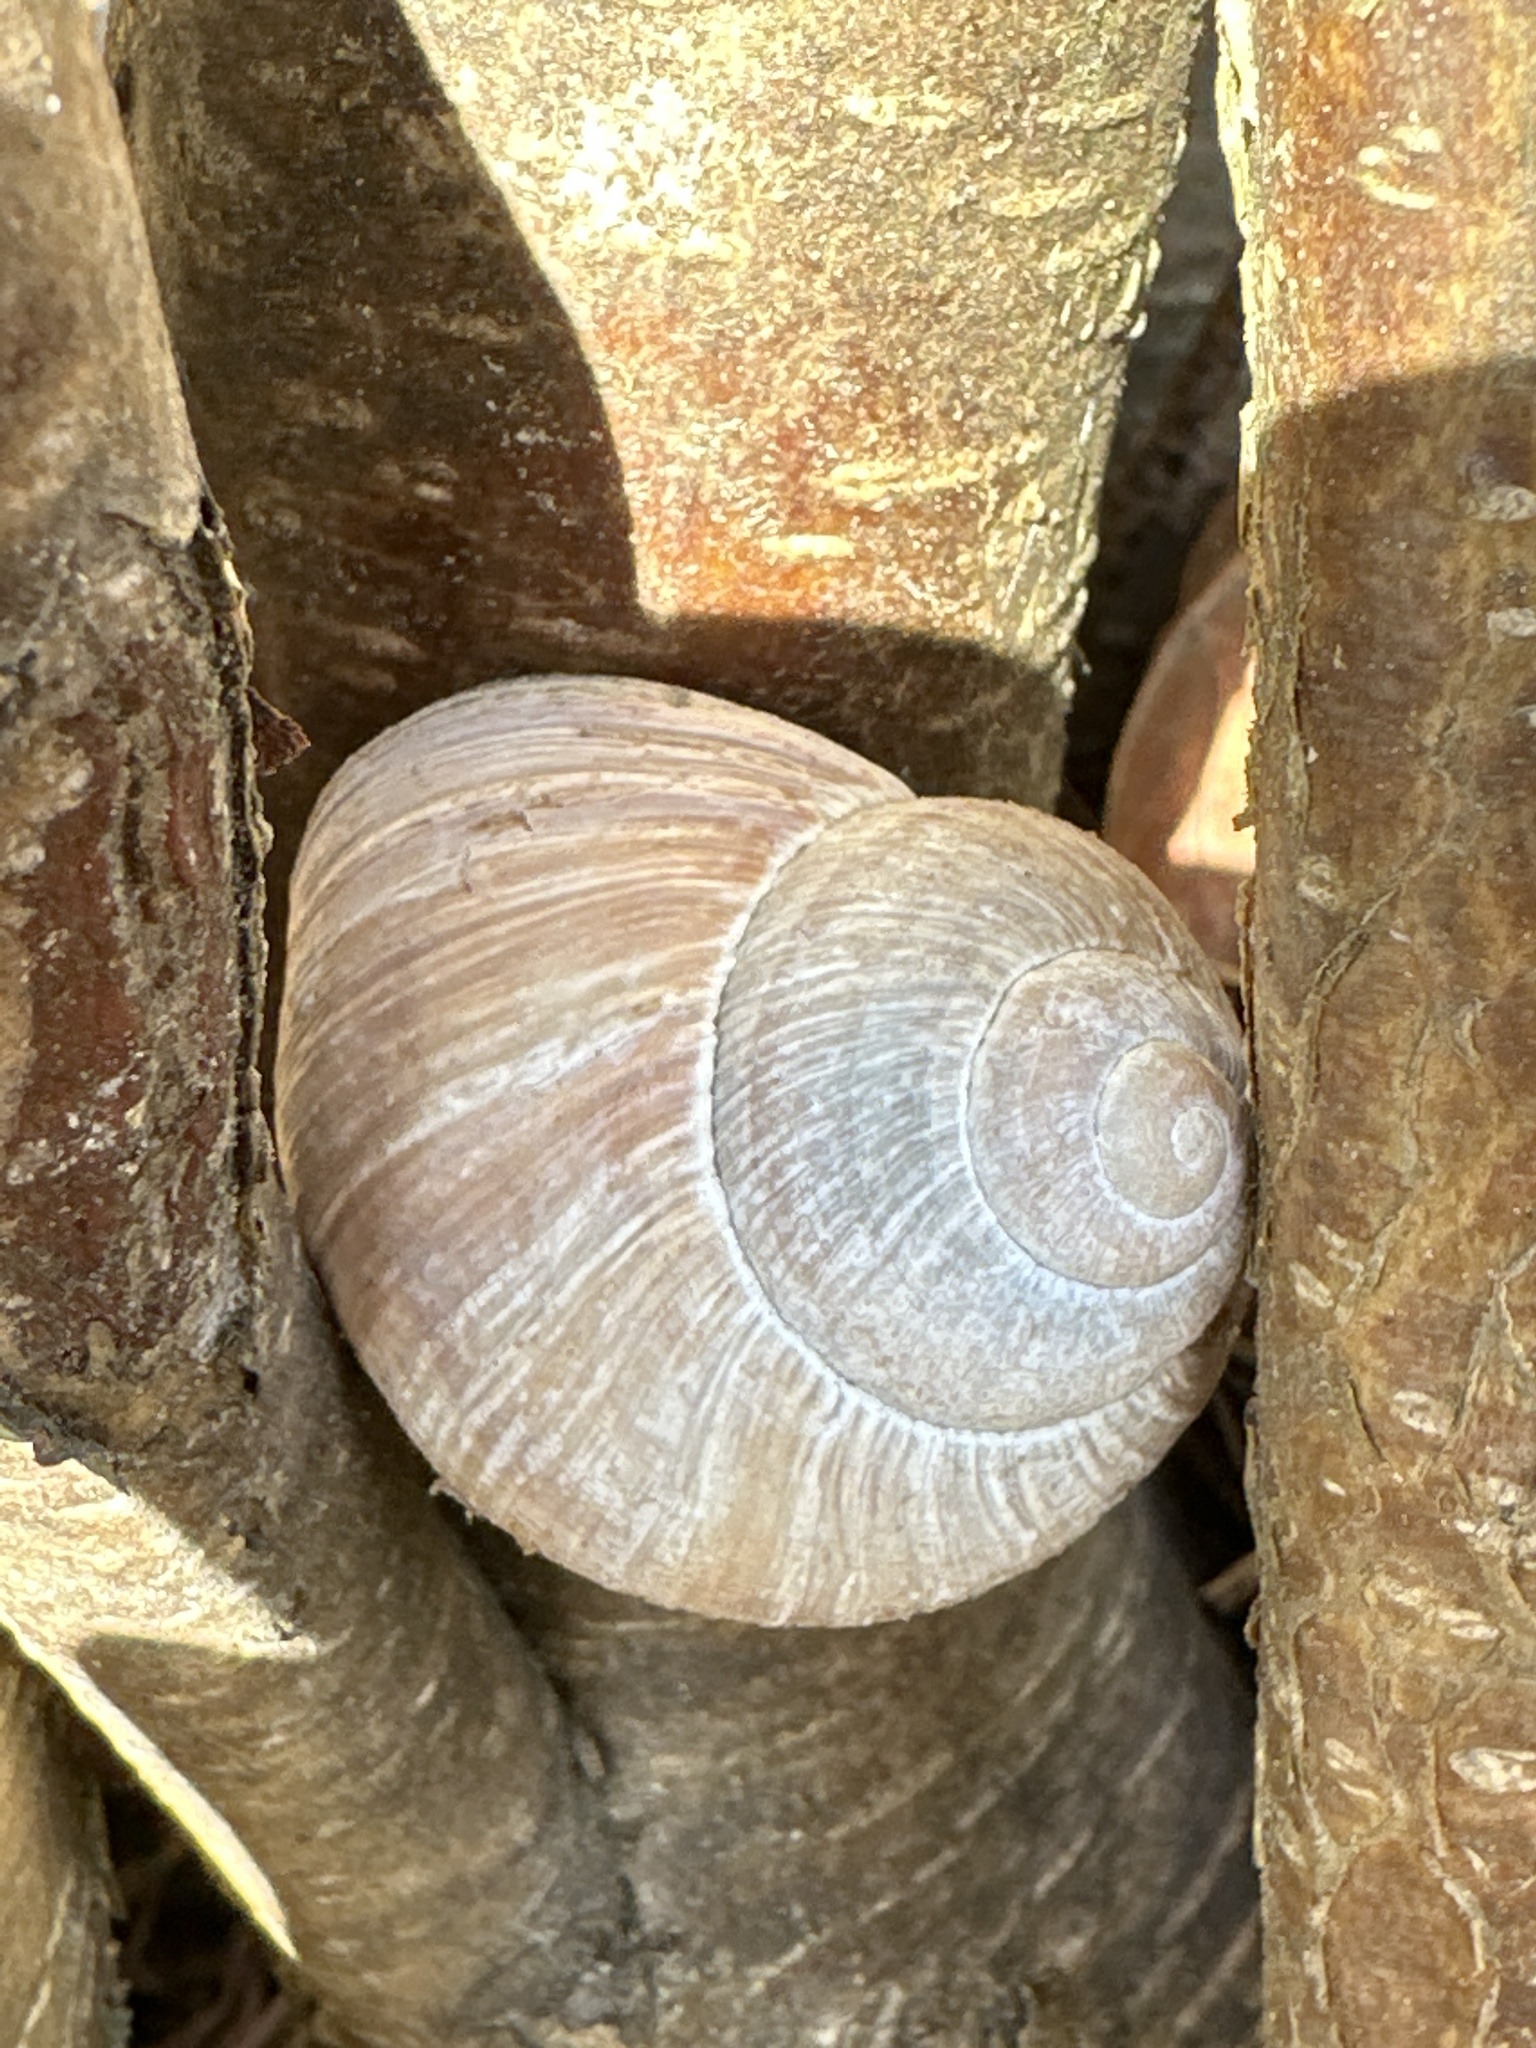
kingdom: Animalia
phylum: Mollusca
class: Gastropoda
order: Stylommatophora
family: Helicidae
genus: Helix
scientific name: Helix pomatia
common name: Roman snail
